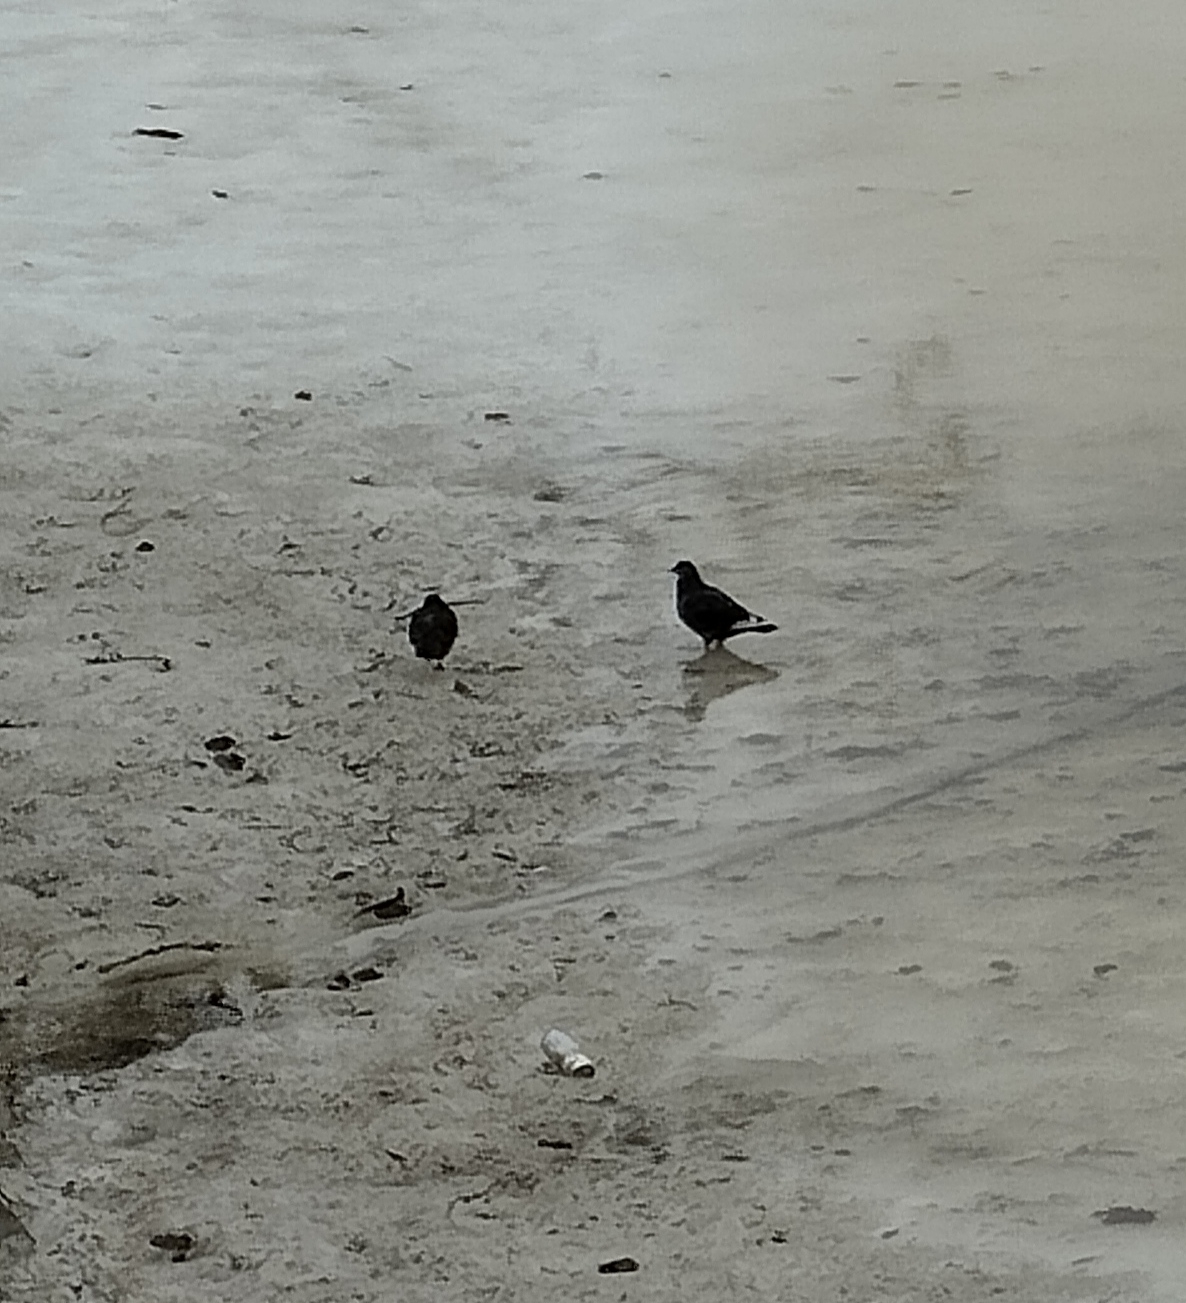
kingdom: Animalia
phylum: Chordata
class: Aves
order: Columbiformes
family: Columbidae
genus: Columba
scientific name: Columba livia
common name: Rock pigeon
